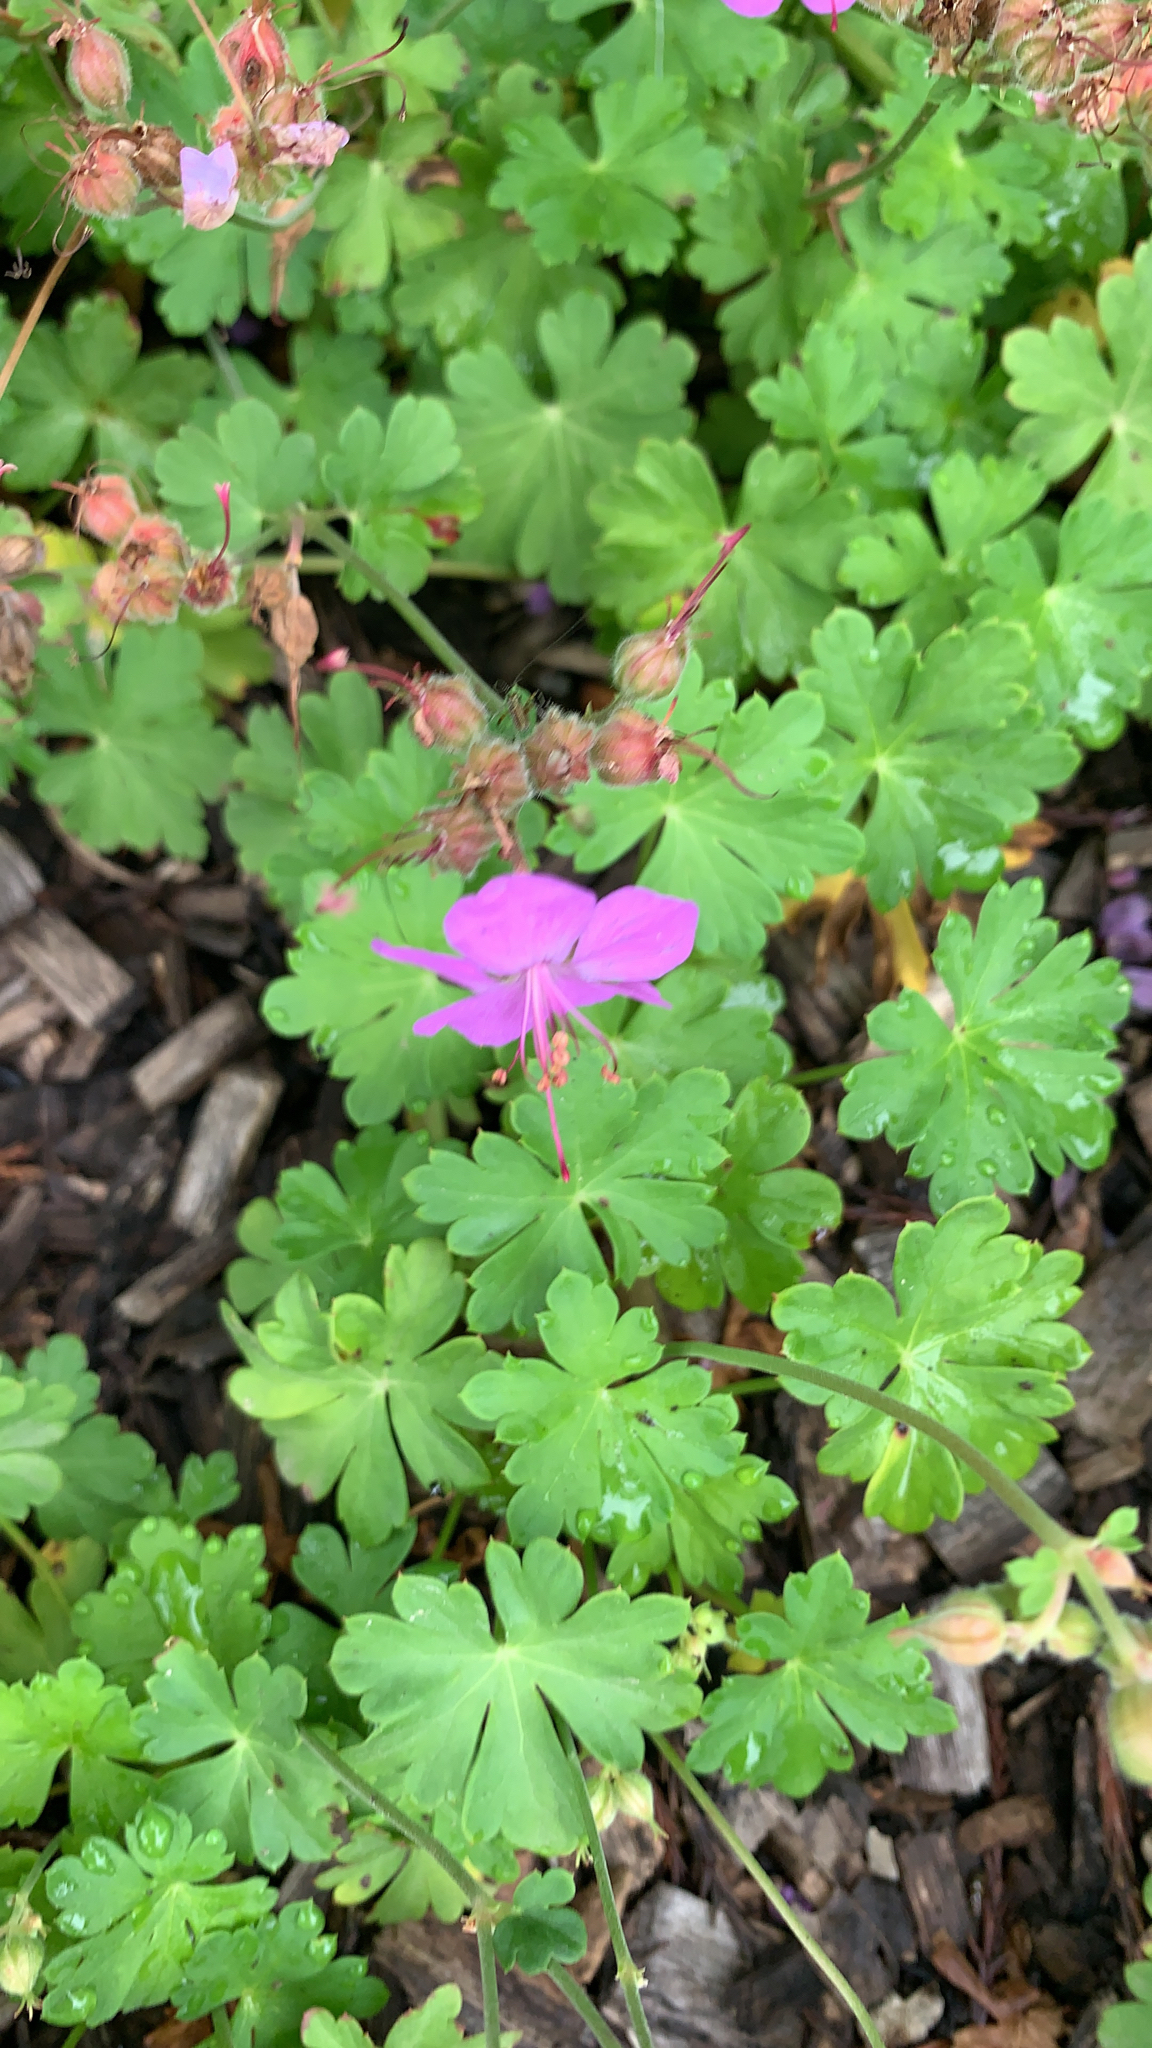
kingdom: Plantae
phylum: Tracheophyta
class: Magnoliopsida
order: Geraniales
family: Geraniaceae
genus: Geranium
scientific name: Geranium macrorrhizum
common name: Rock crane's-bill
